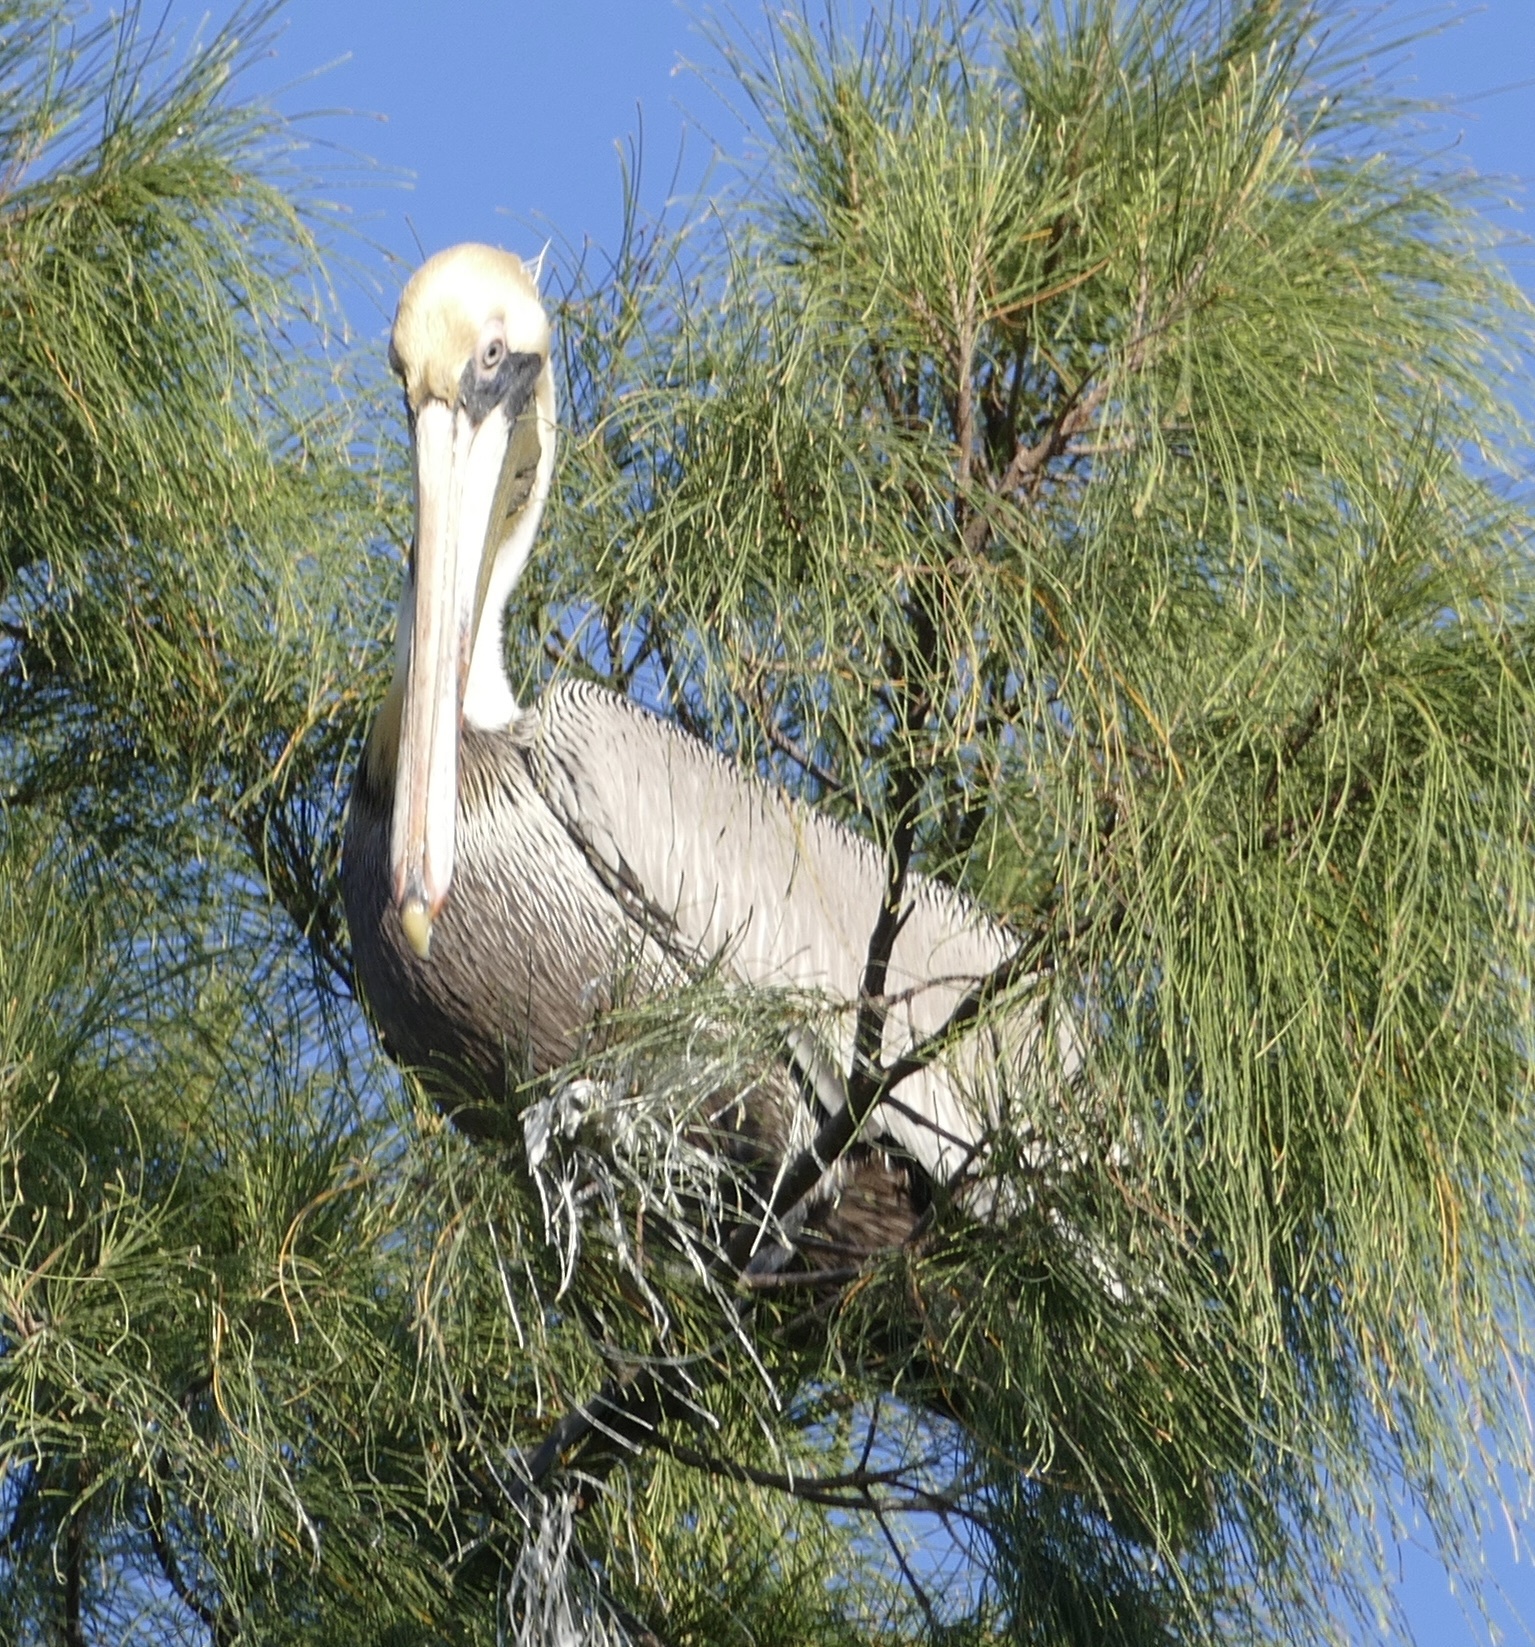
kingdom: Animalia
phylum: Chordata
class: Aves
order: Pelecaniformes
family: Pelecanidae
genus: Pelecanus
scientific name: Pelecanus occidentalis
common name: Brown pelican
